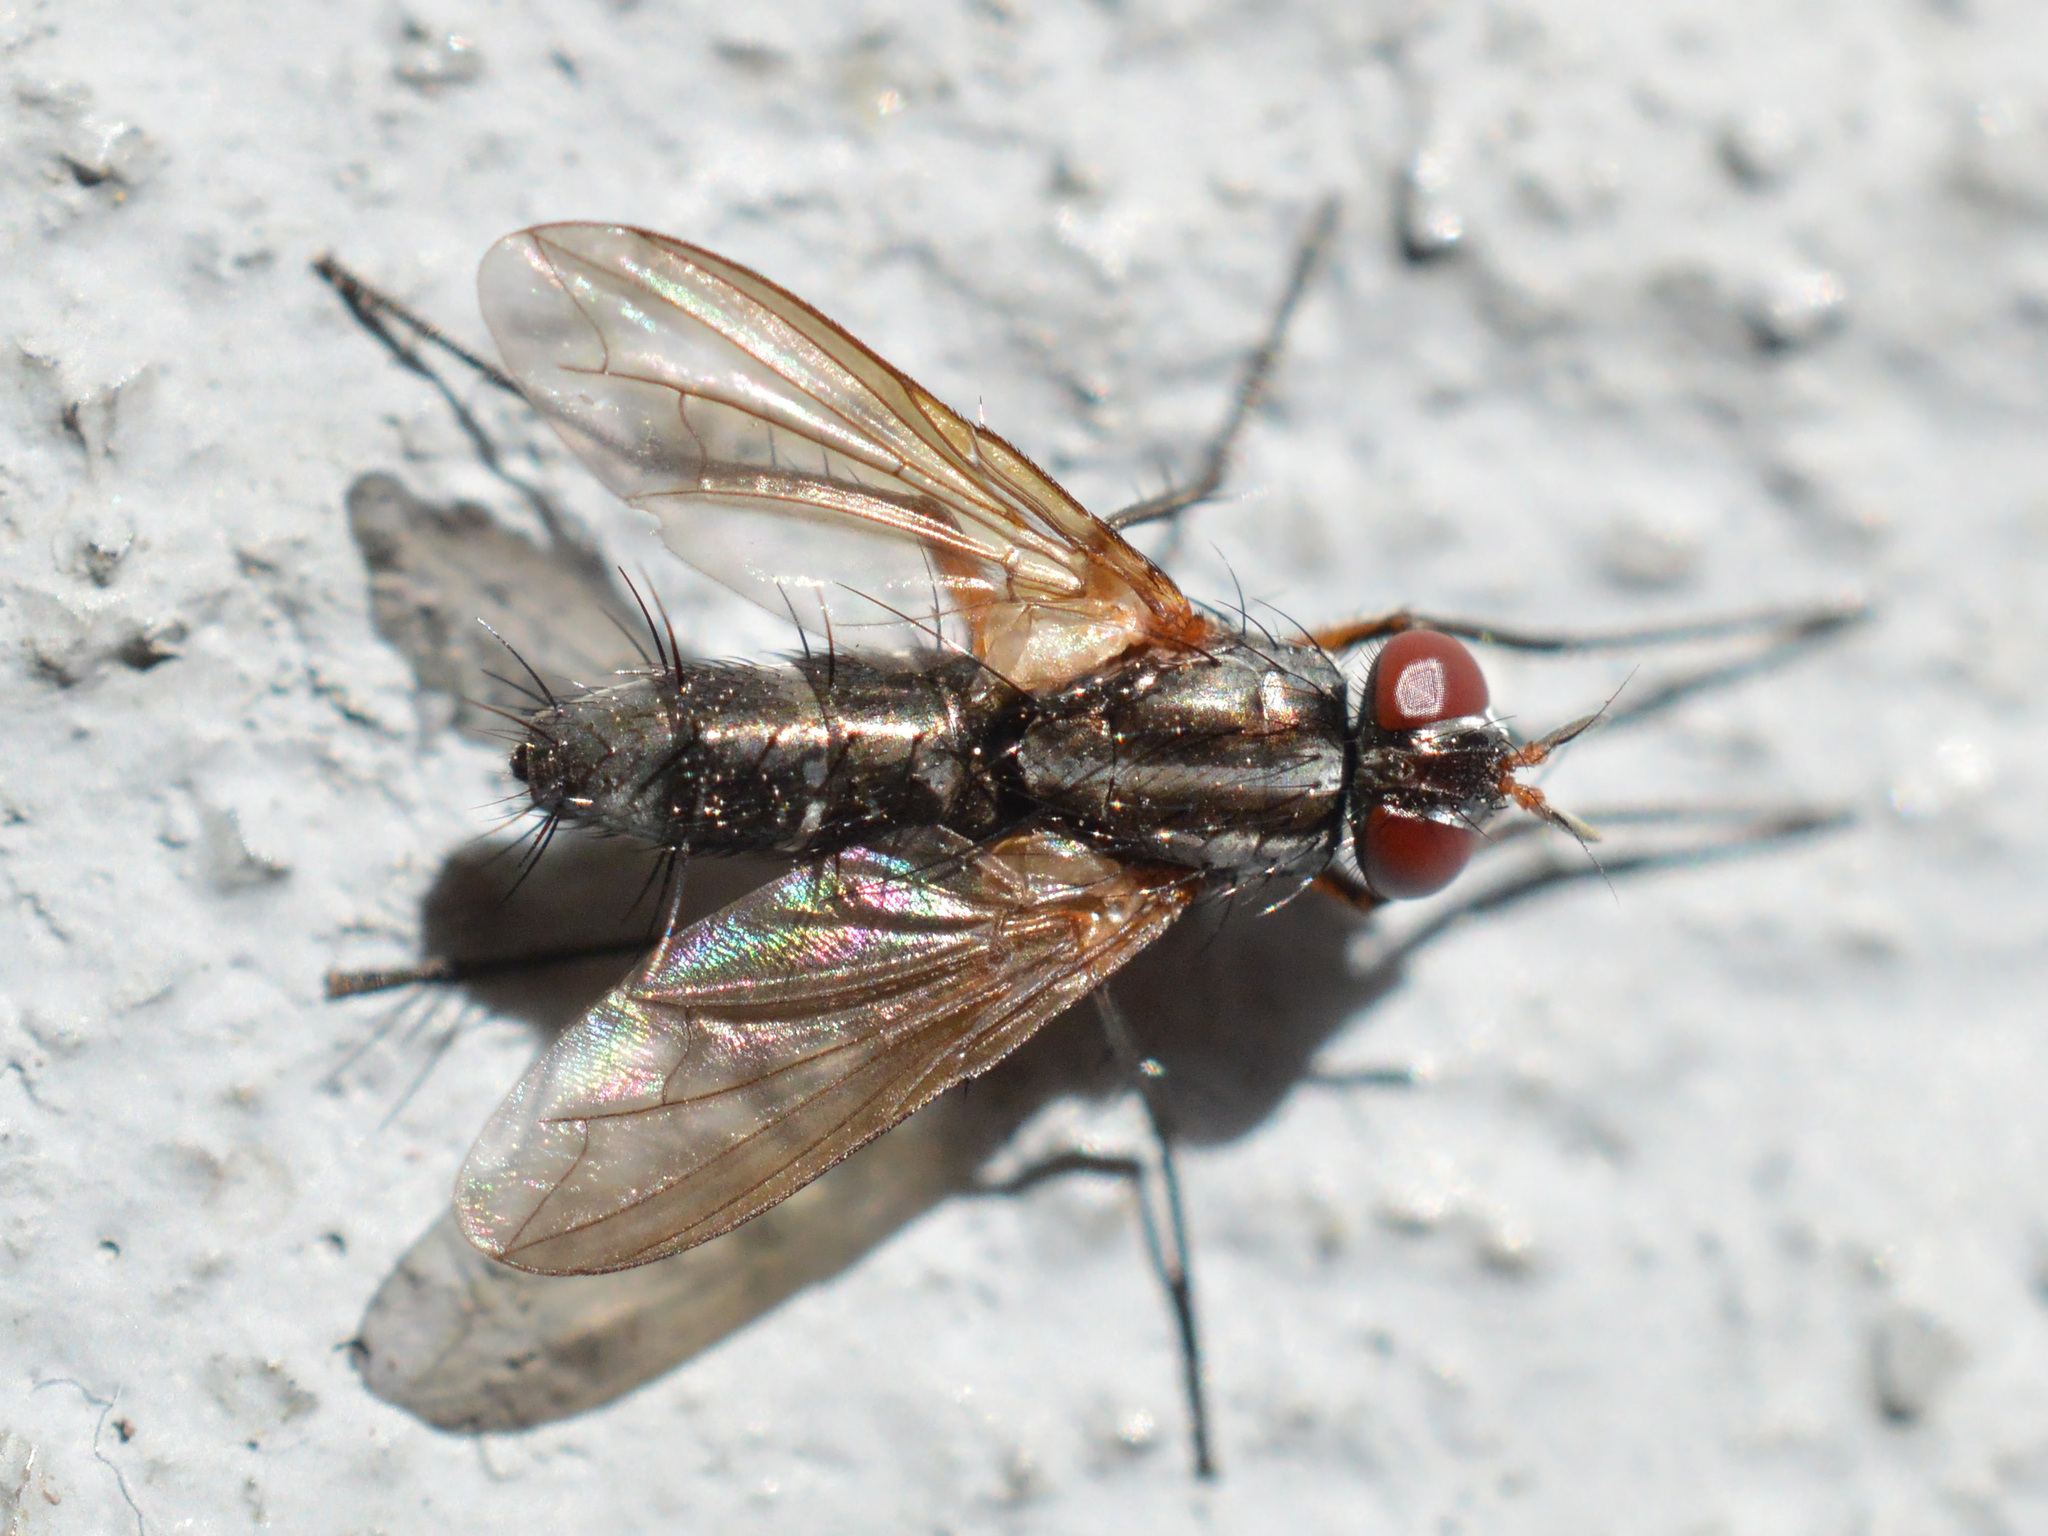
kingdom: Animalia
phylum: Arthropoda
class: Insecta
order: Diptera
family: Tachinidae
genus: Mintho
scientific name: Mintho rufiventris
